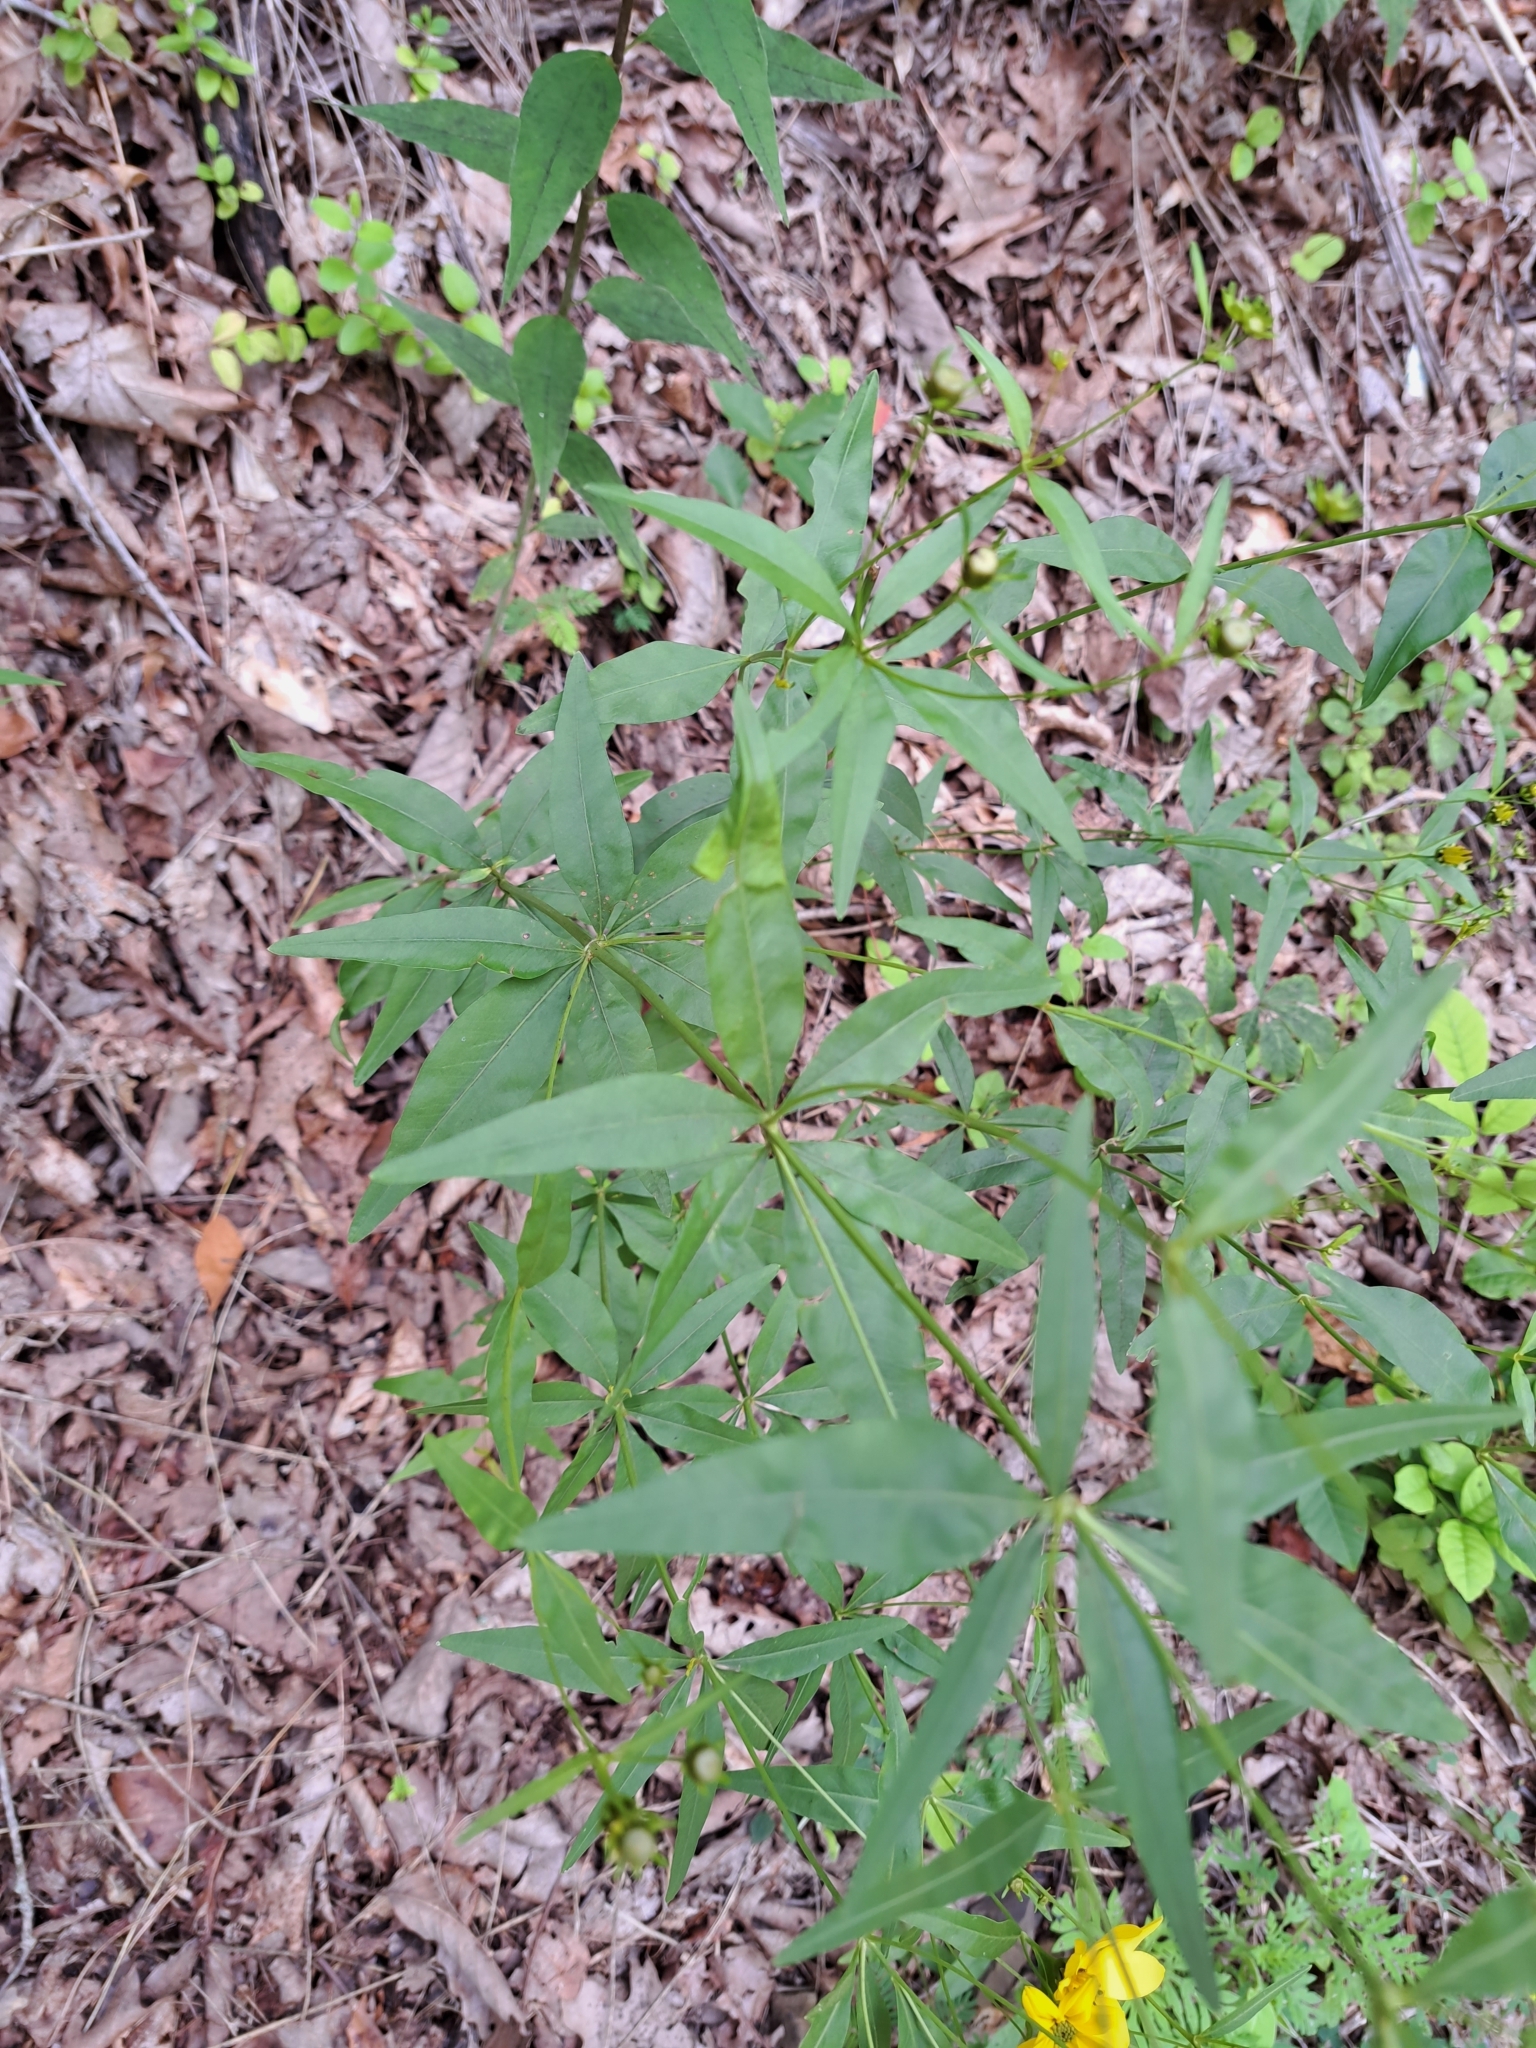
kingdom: Plantae
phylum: Tracheophyta
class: Magnoliopsida
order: Asterales
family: Asteraceae
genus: Coreopsis
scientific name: Coreopsis major
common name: Forest tickseed
